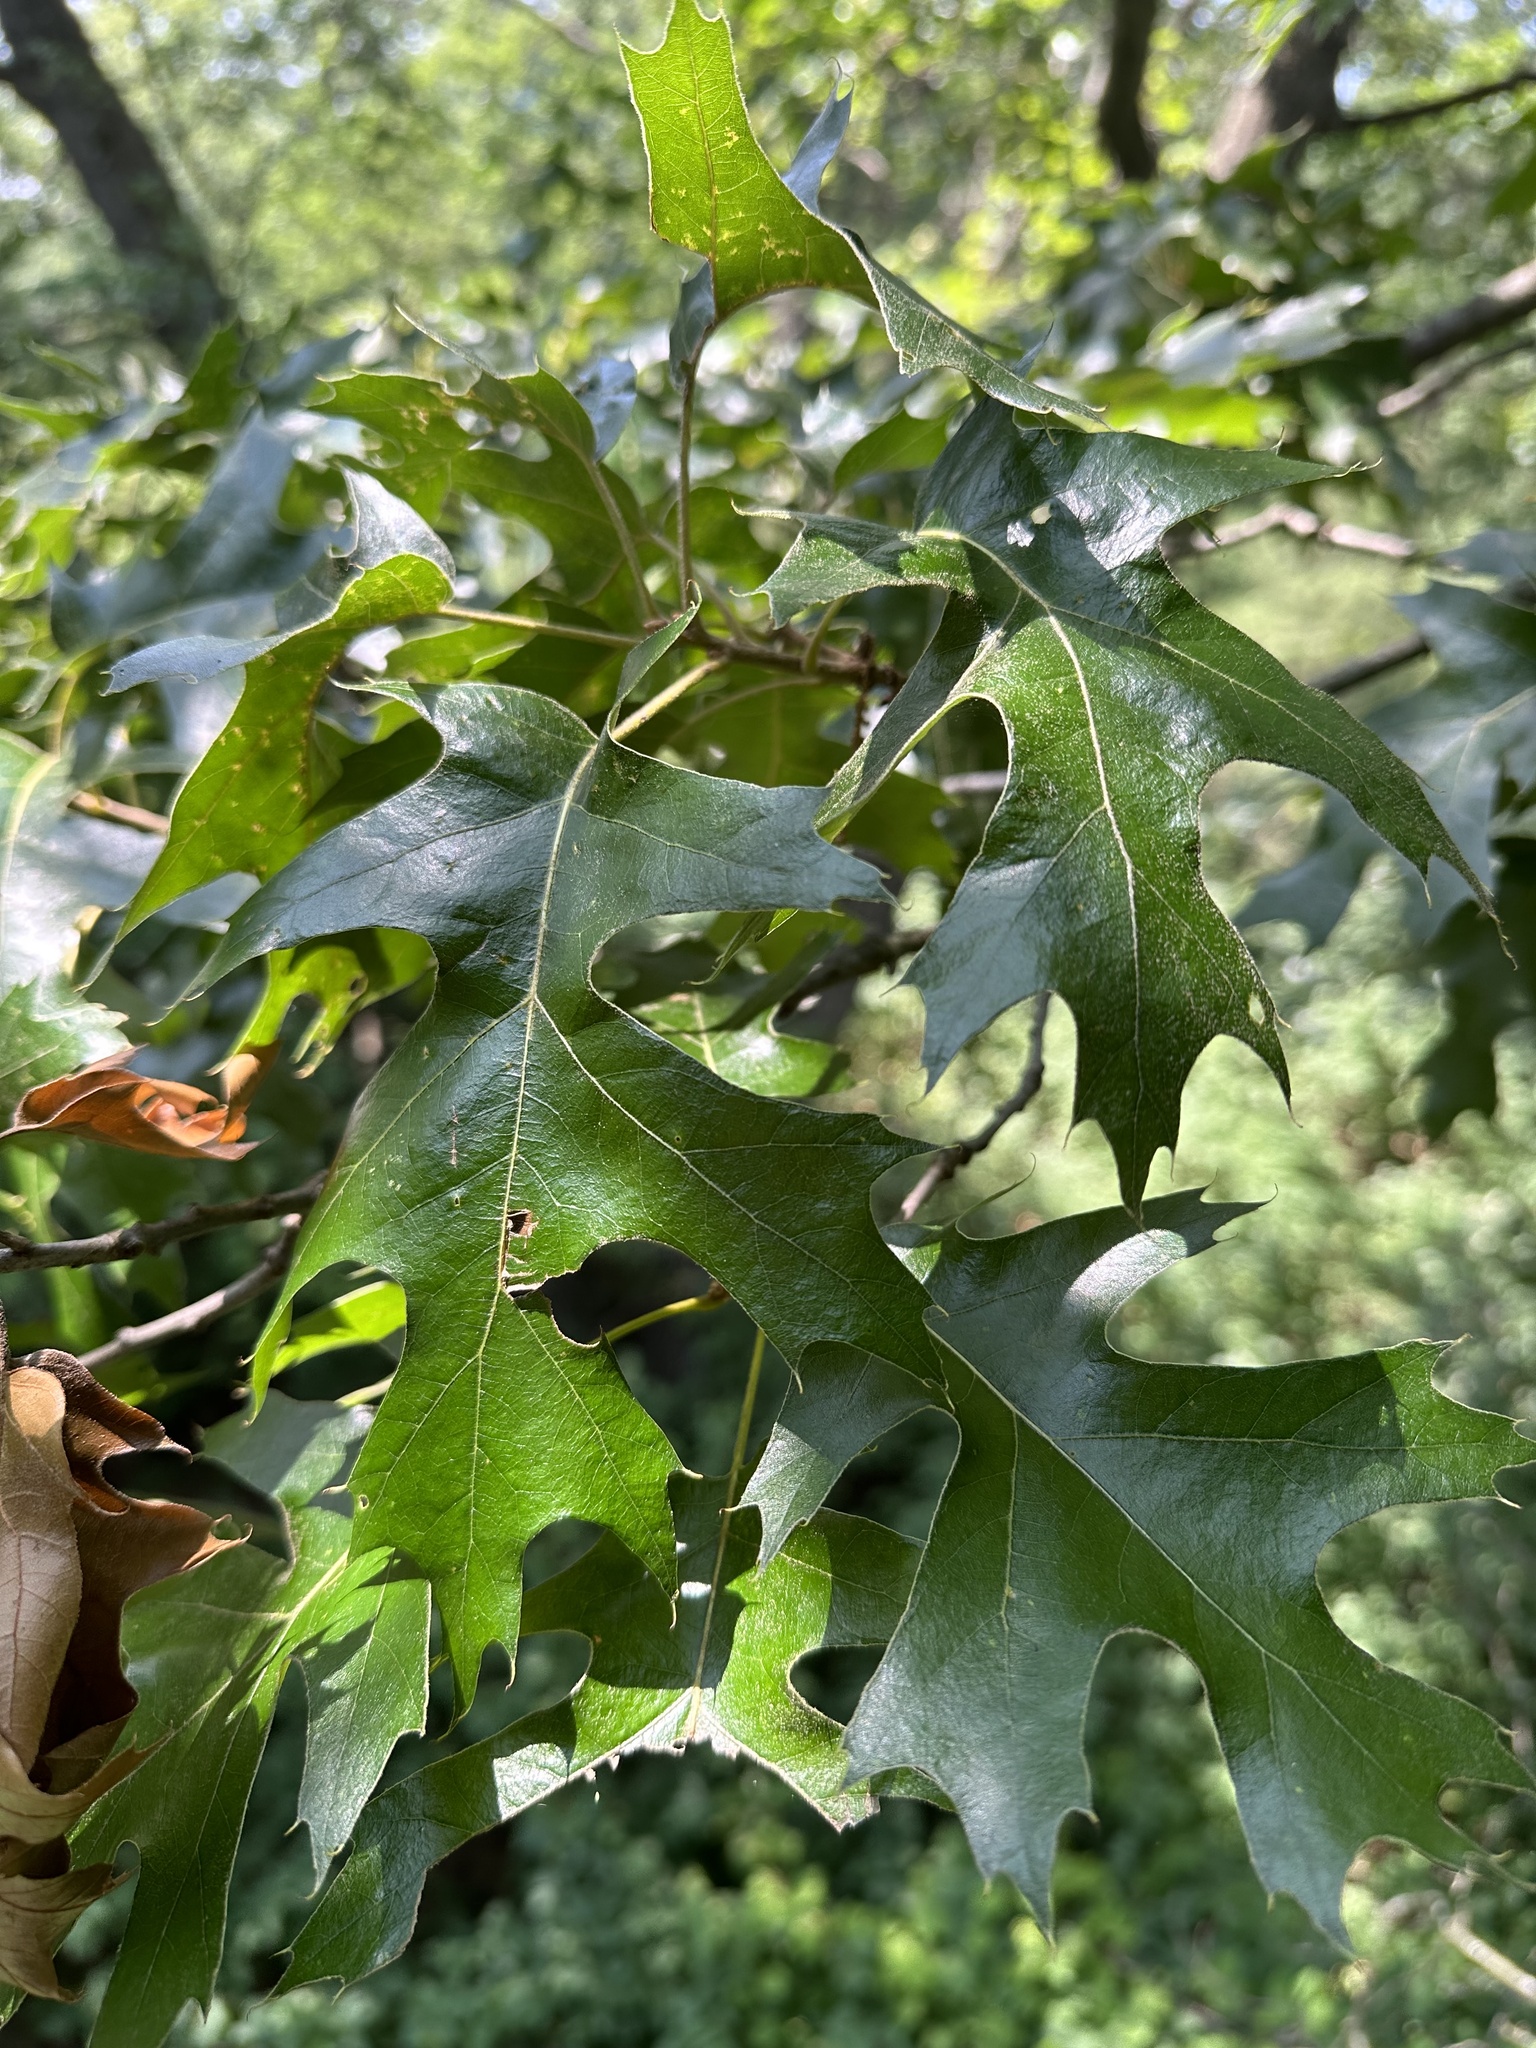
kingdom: Plantae
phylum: Tracheophyta
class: Magnoliopsida
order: Fagales
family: Fagaceae
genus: Quercus
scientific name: Quercus velutina
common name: Black oak
